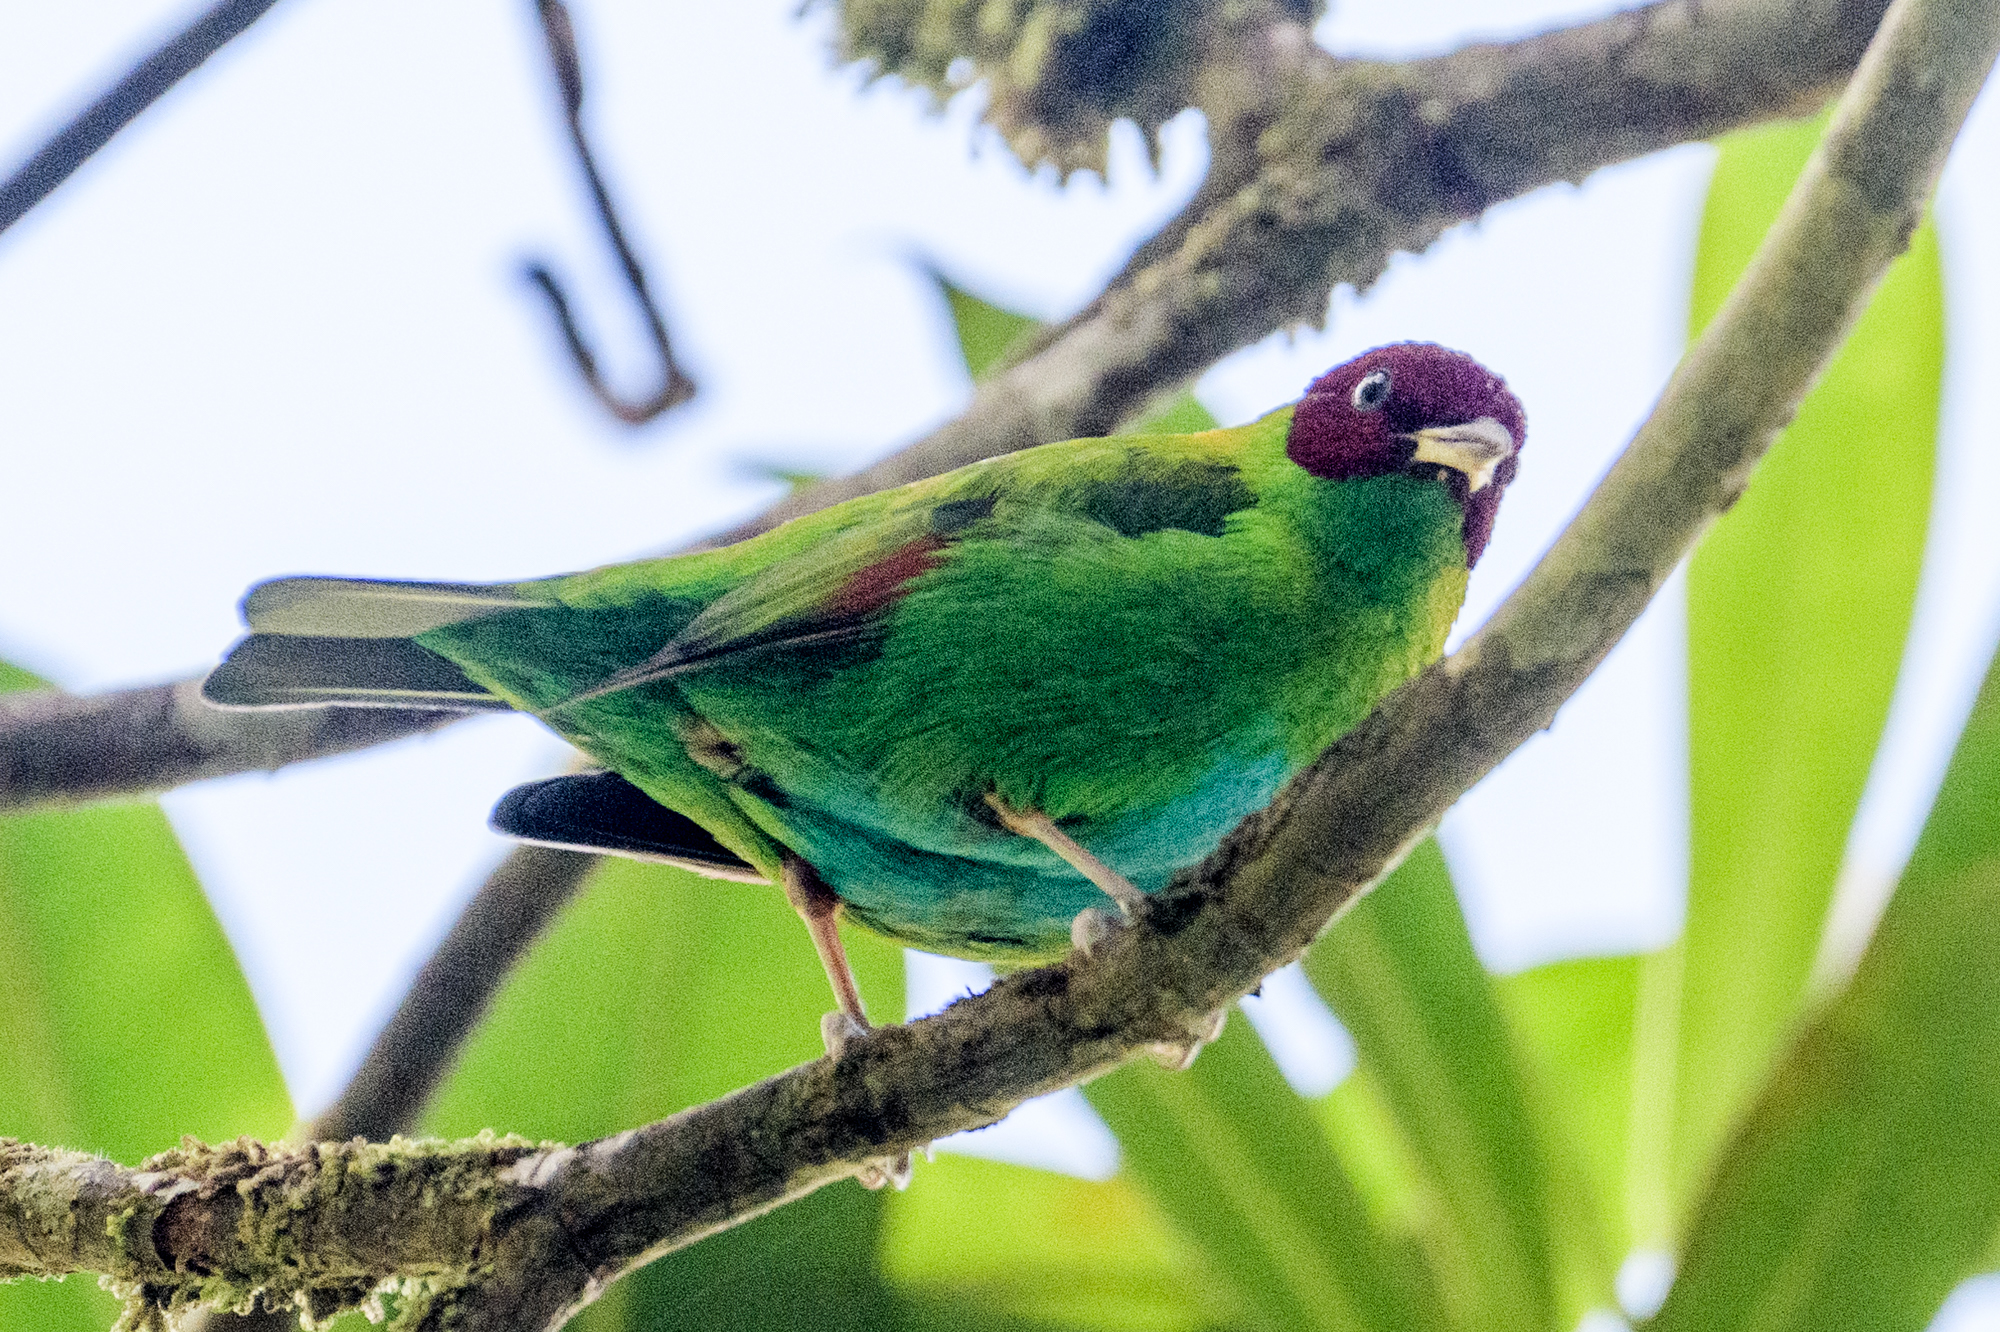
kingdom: Animalia
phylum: Chordata
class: Aves
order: Passeriformes
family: Thraupidae
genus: Tangara
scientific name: Tangara lavinia
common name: Rufous-winged tanager
